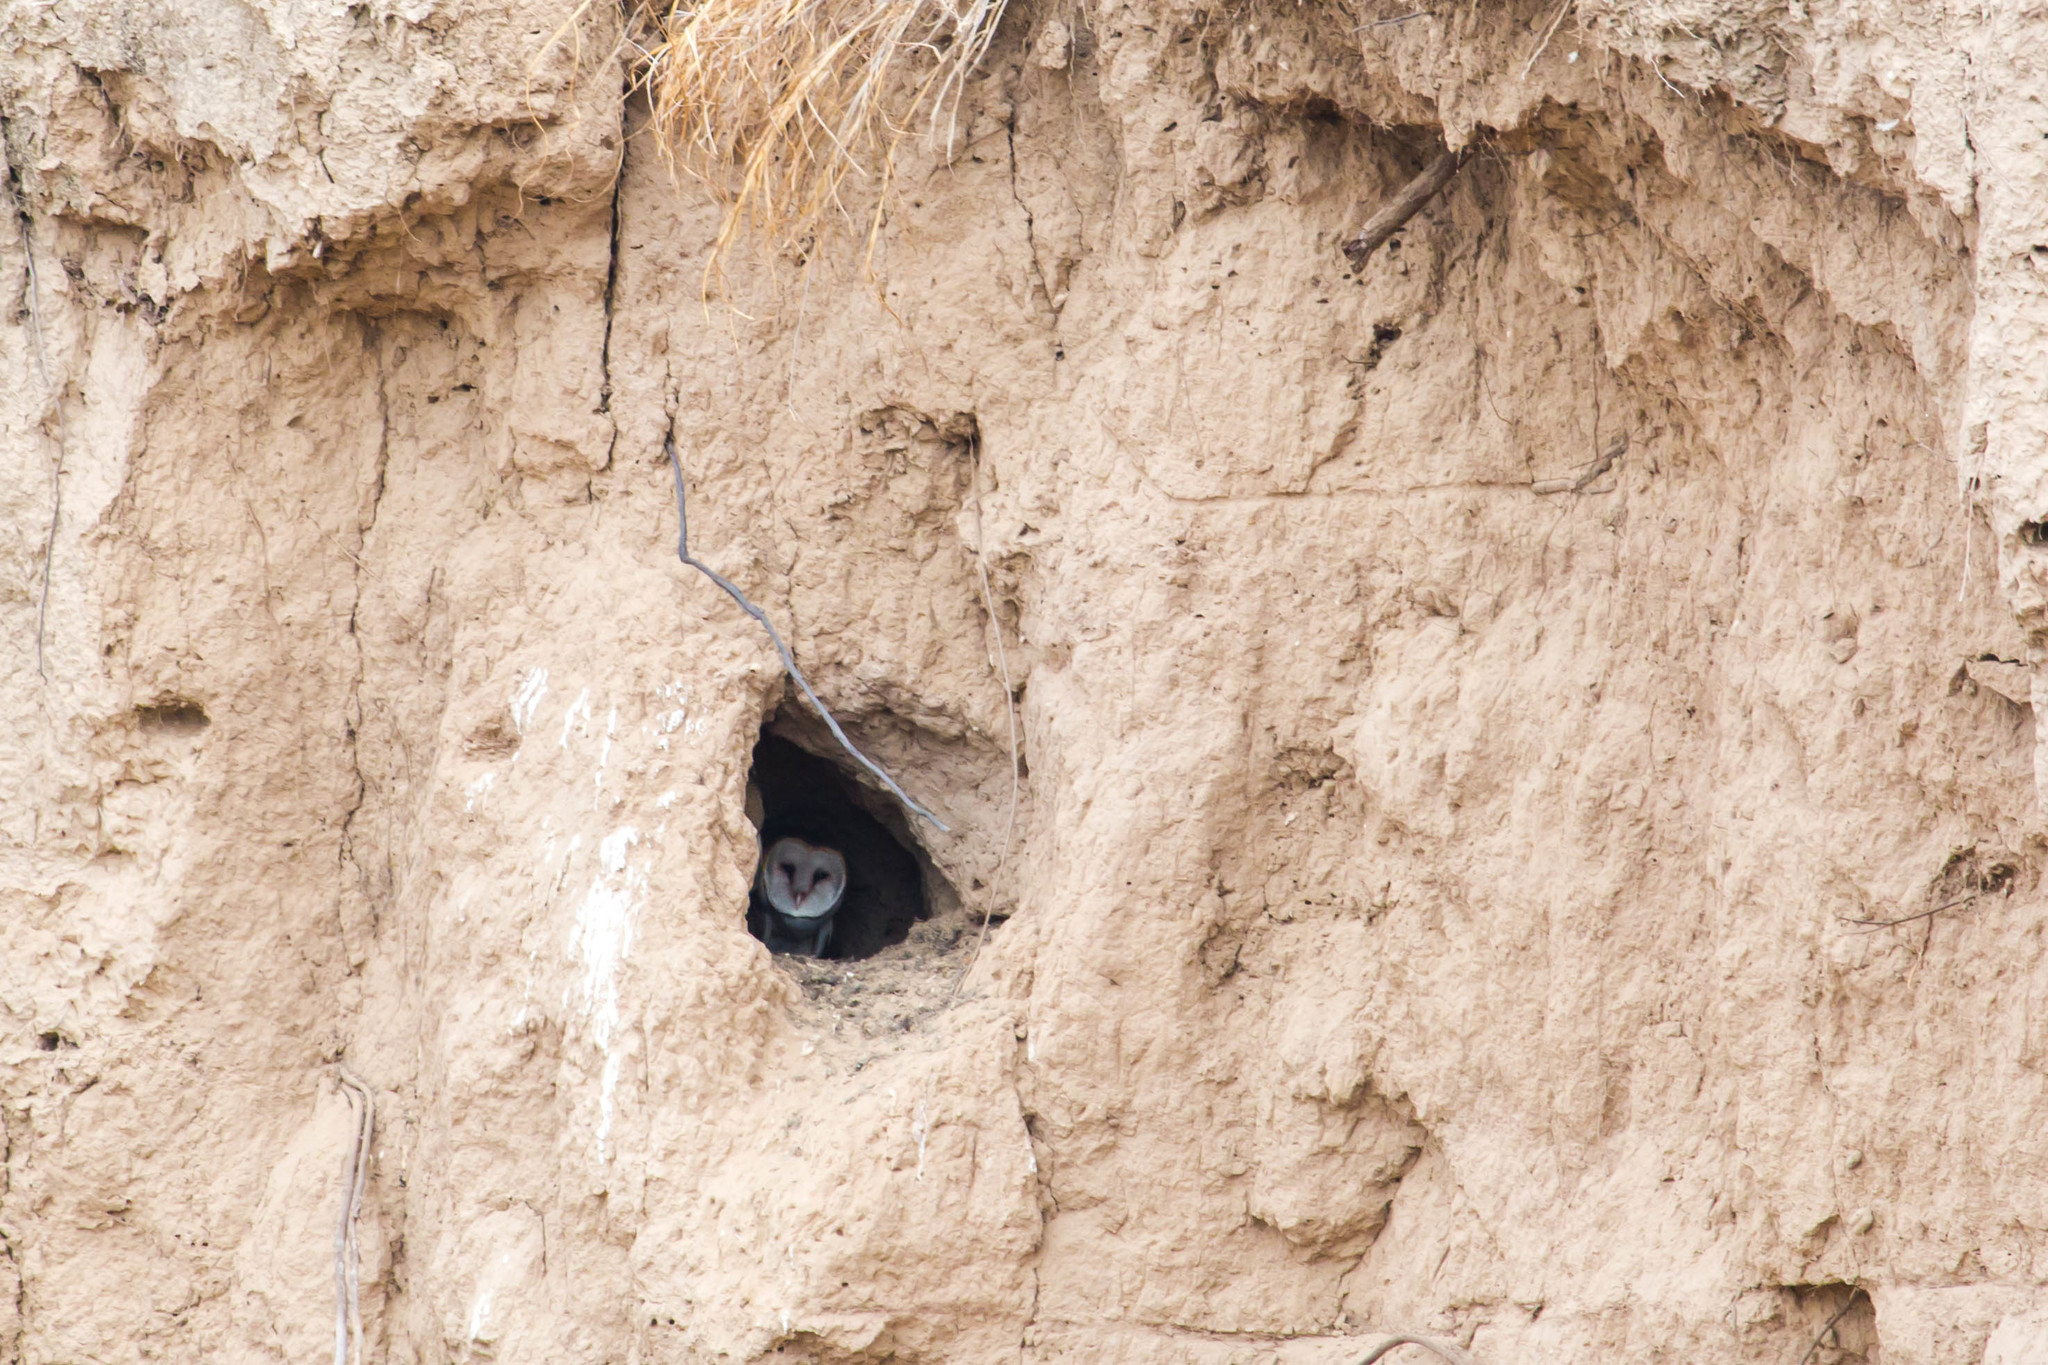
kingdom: Animalia
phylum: Chordata
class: Aves
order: Strigiformes
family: Tytonidae
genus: Tyto
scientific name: Tyto alba
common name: Barn owl
